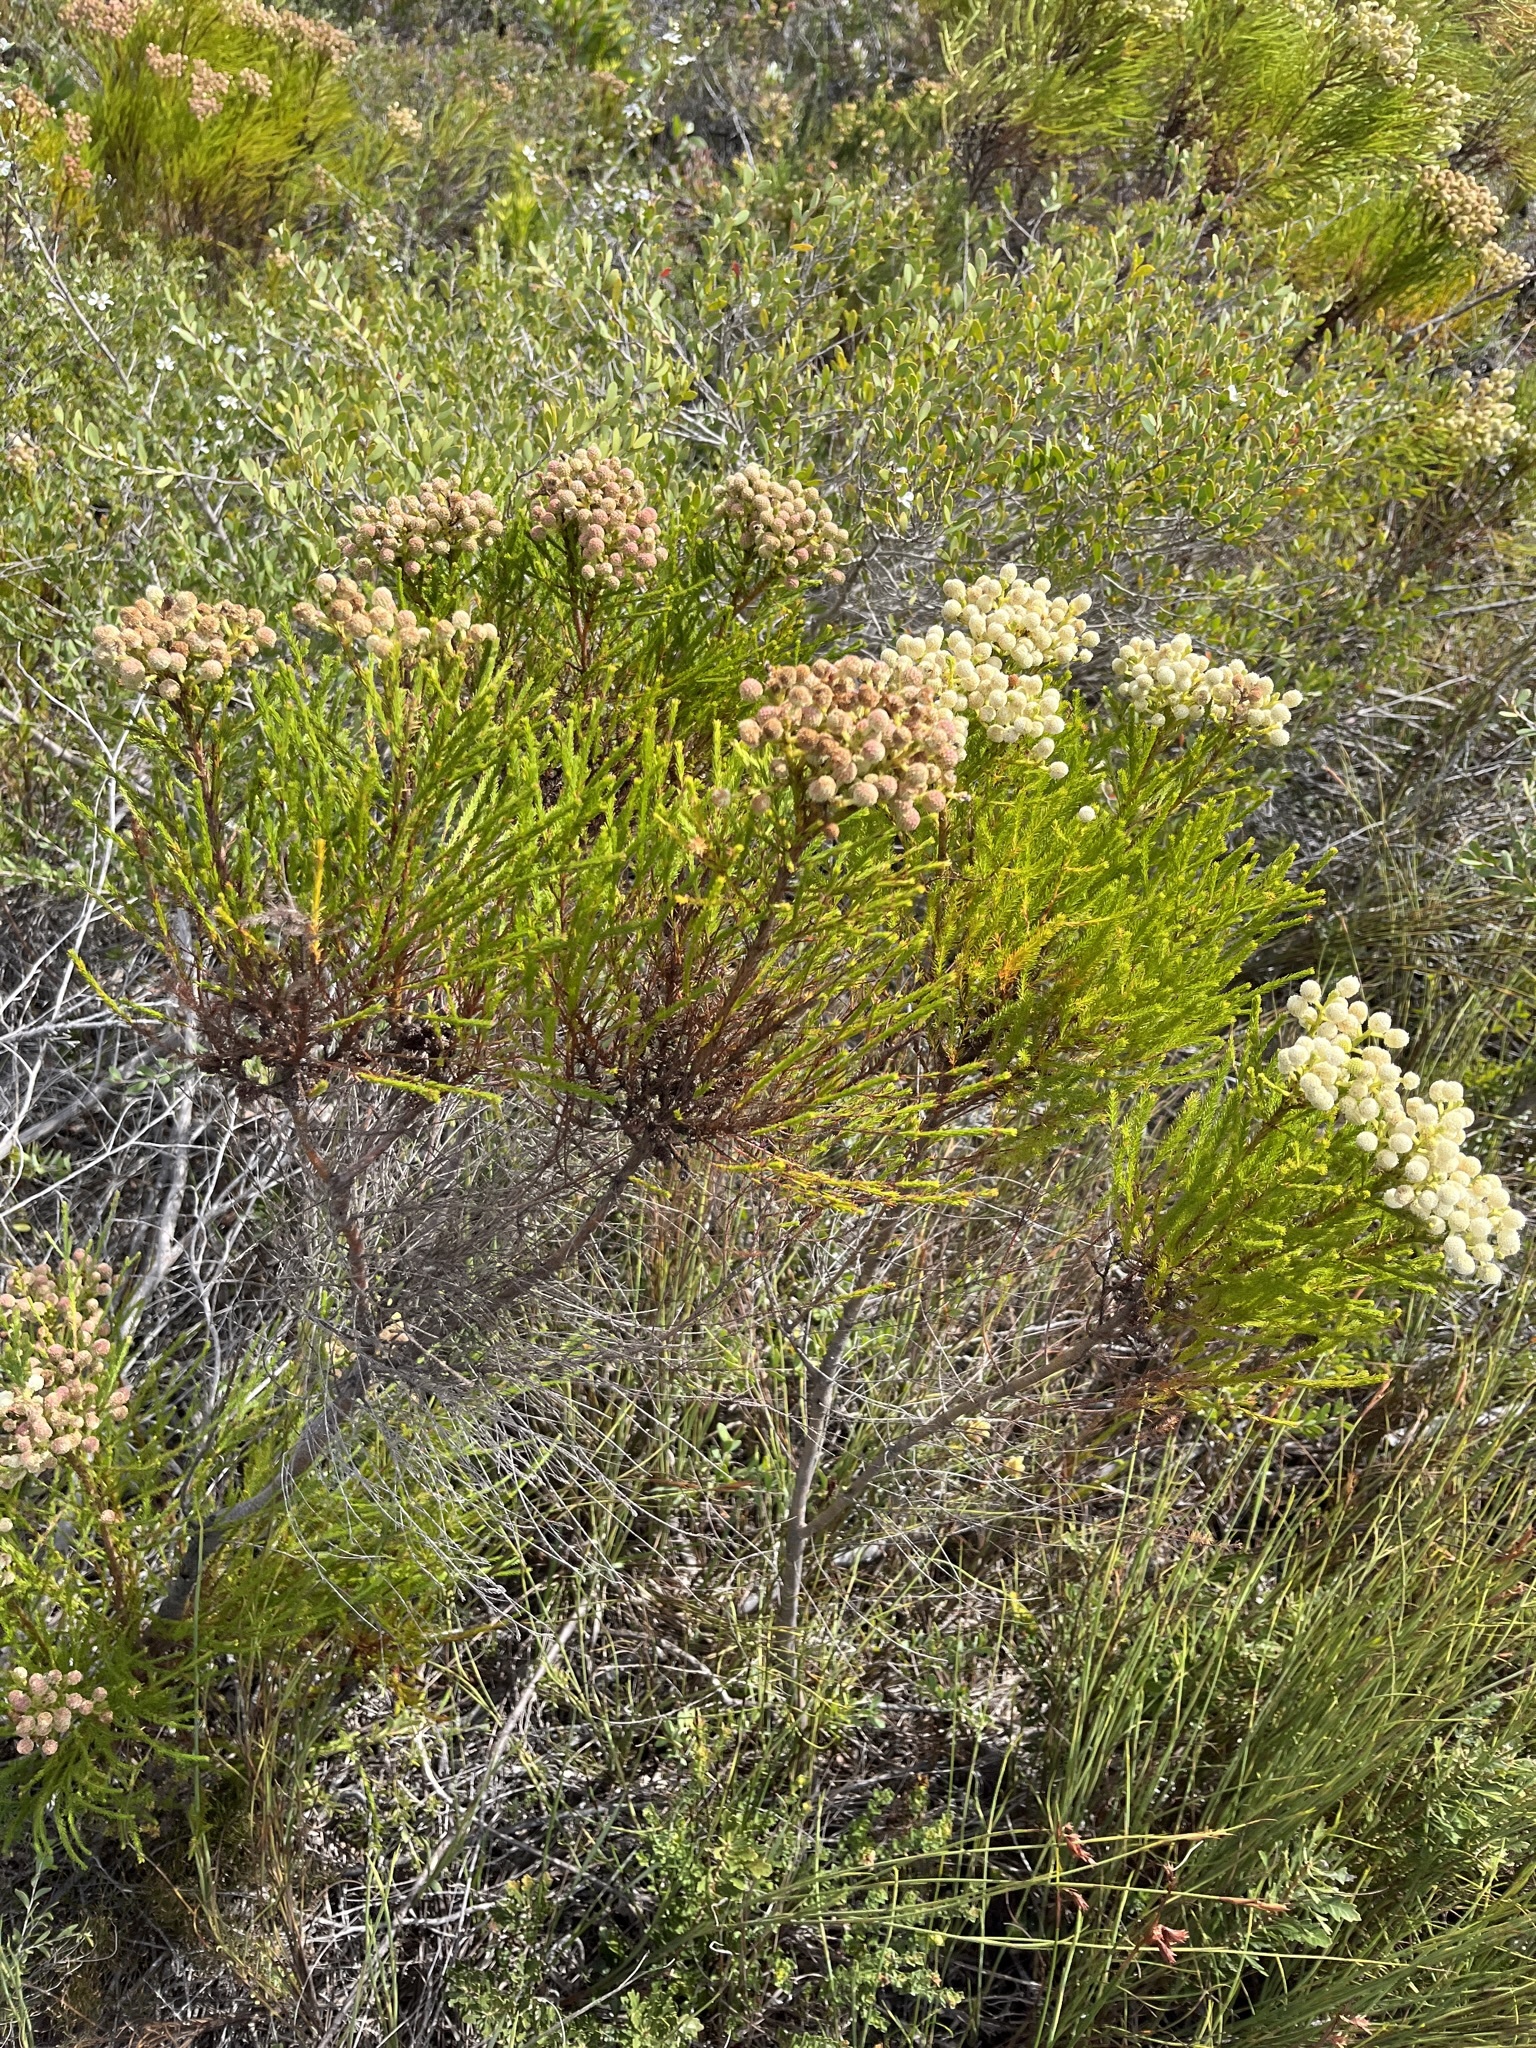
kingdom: Plantae
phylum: Tracheophyta
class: Magnoliopsida
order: Bruniales
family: Bruniaceae
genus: Berzelia
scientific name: Berzelia lanuginosa
